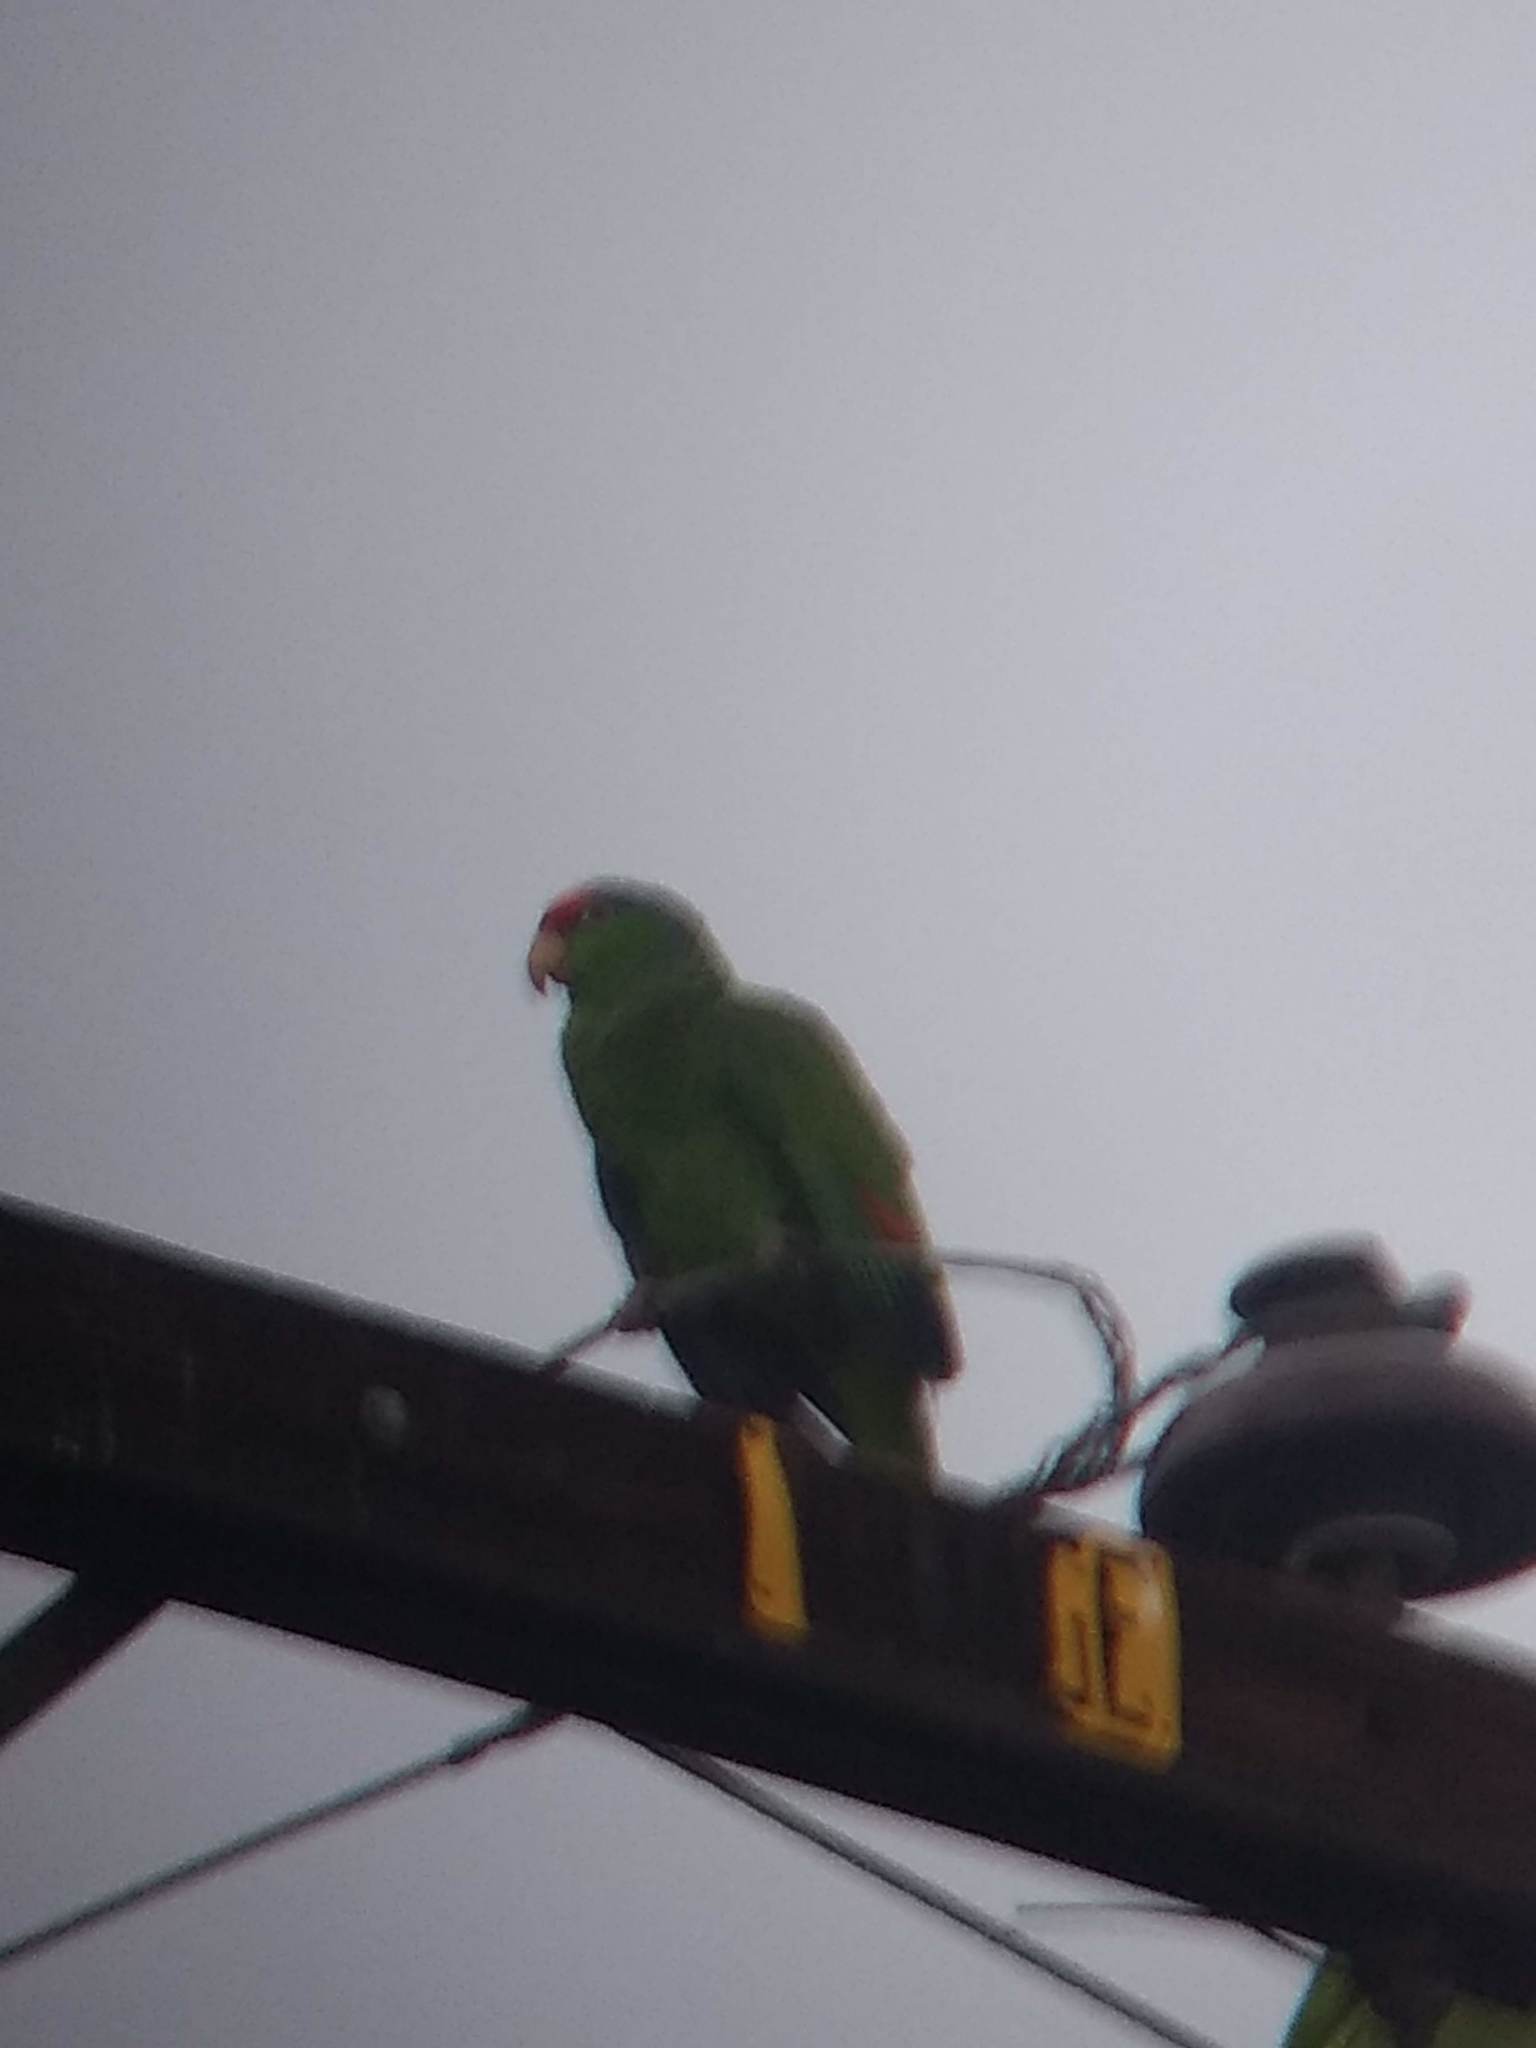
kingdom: Animalia
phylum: Chordata
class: Aves
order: Psittaciformes
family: Psittacidae
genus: Amazona
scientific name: Amazona viridigenalis
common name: Red-crowned amazon
